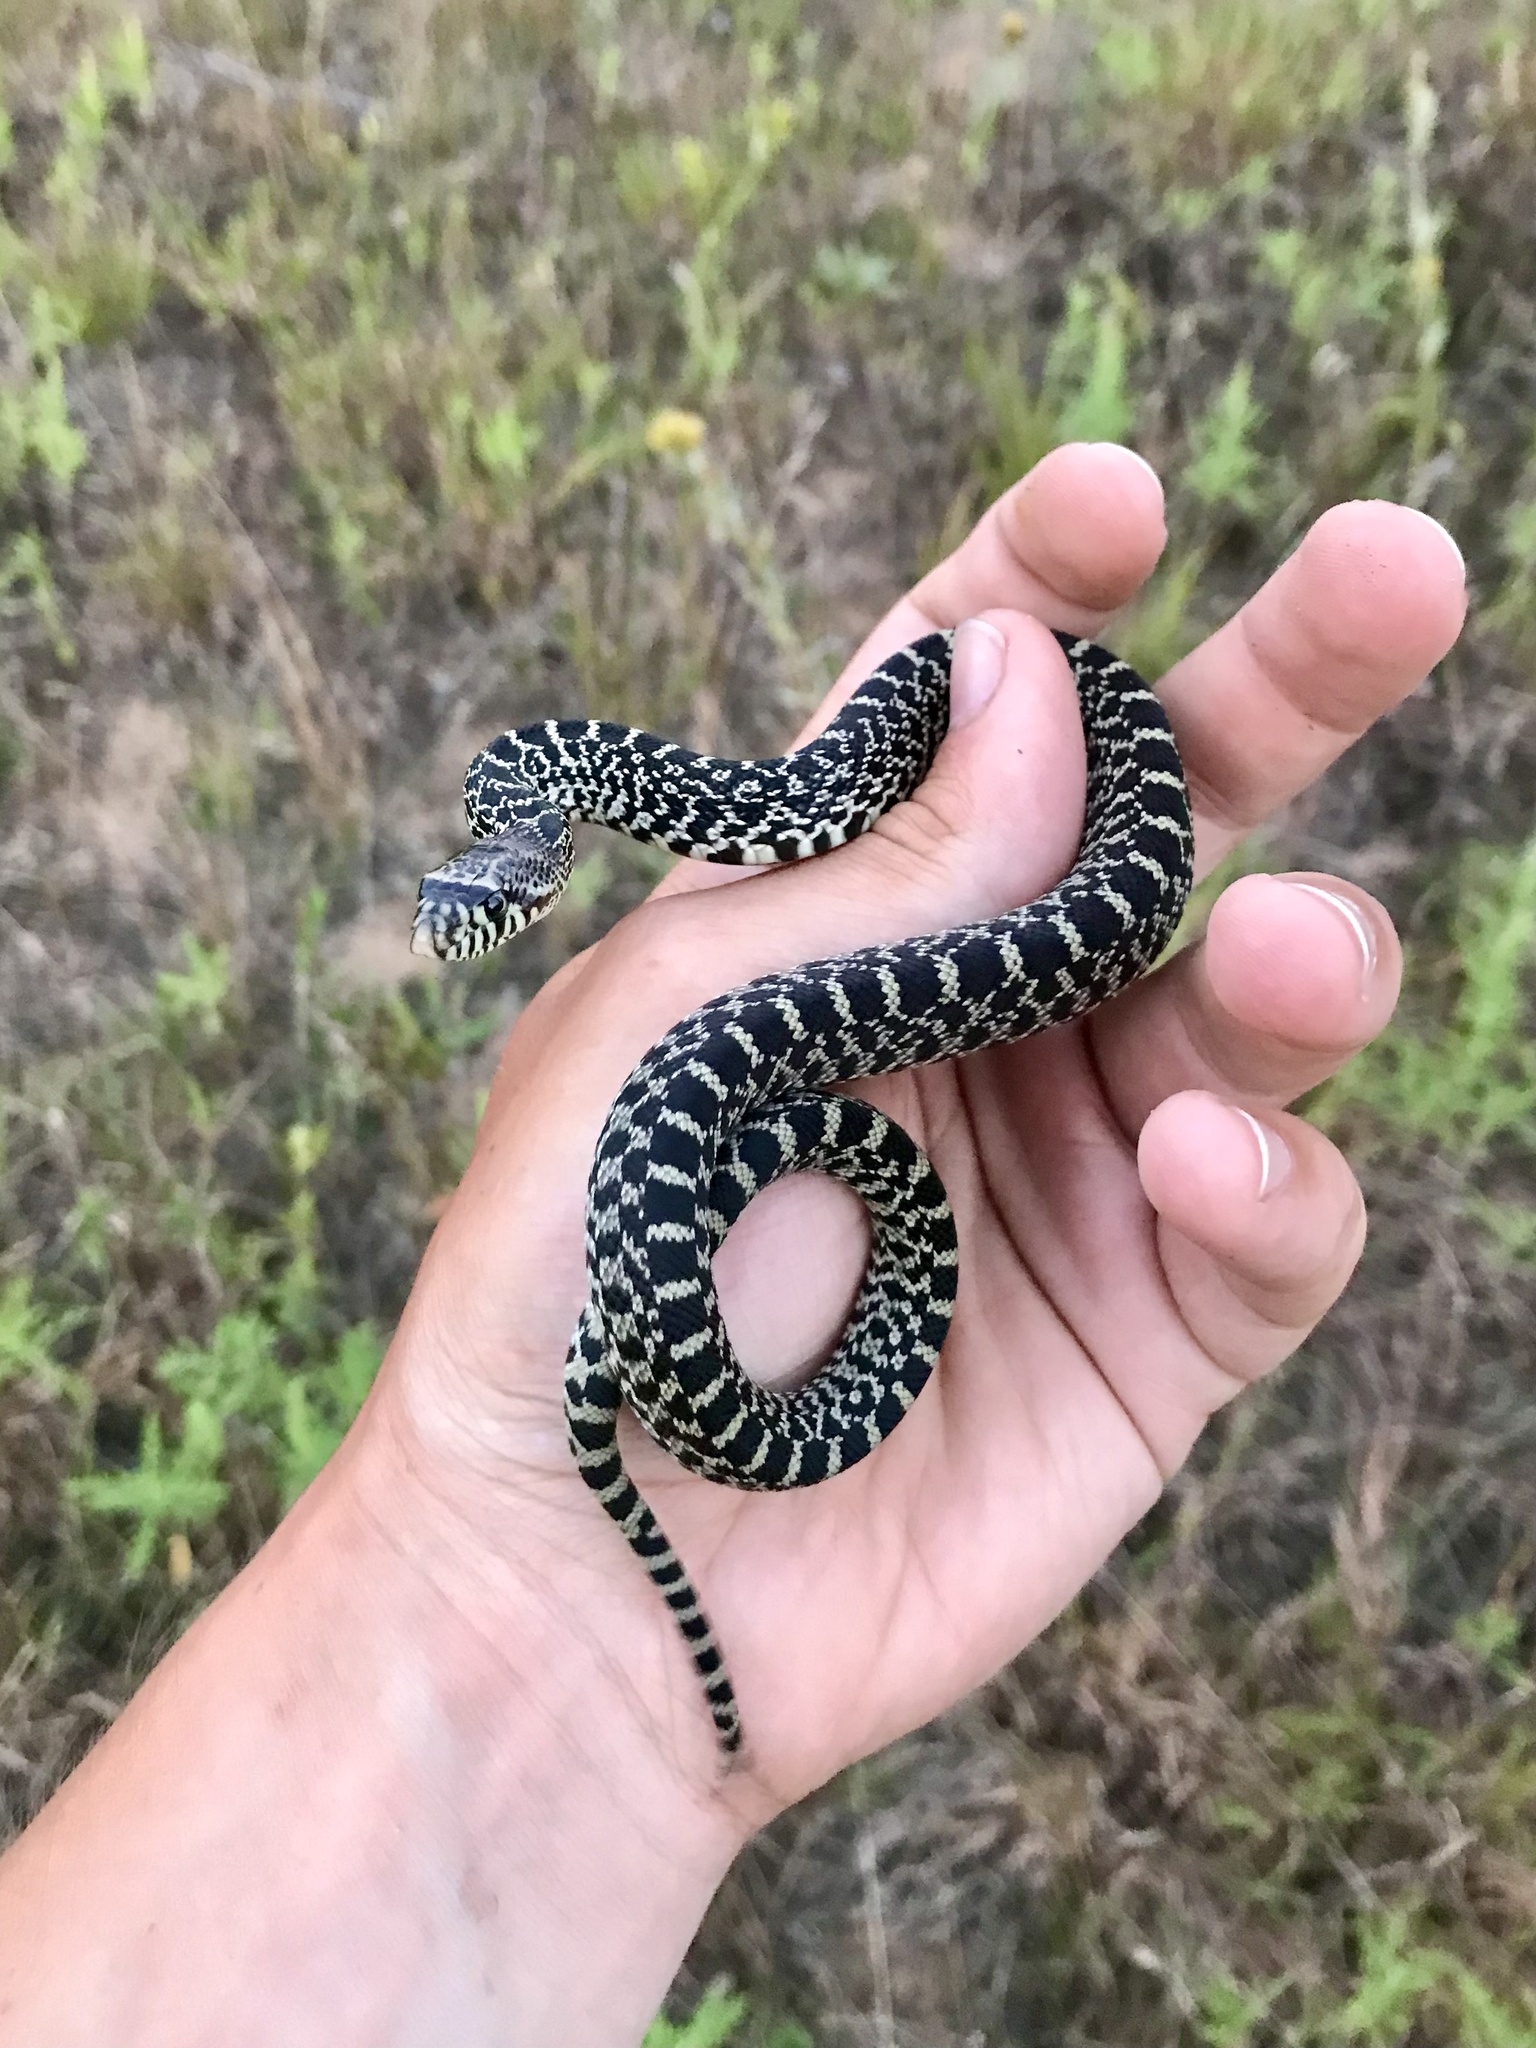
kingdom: Animalia
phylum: Chordata
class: Squamata
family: Colubridae
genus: Pituophis
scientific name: Pituophis catenifer
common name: Gopher snake
